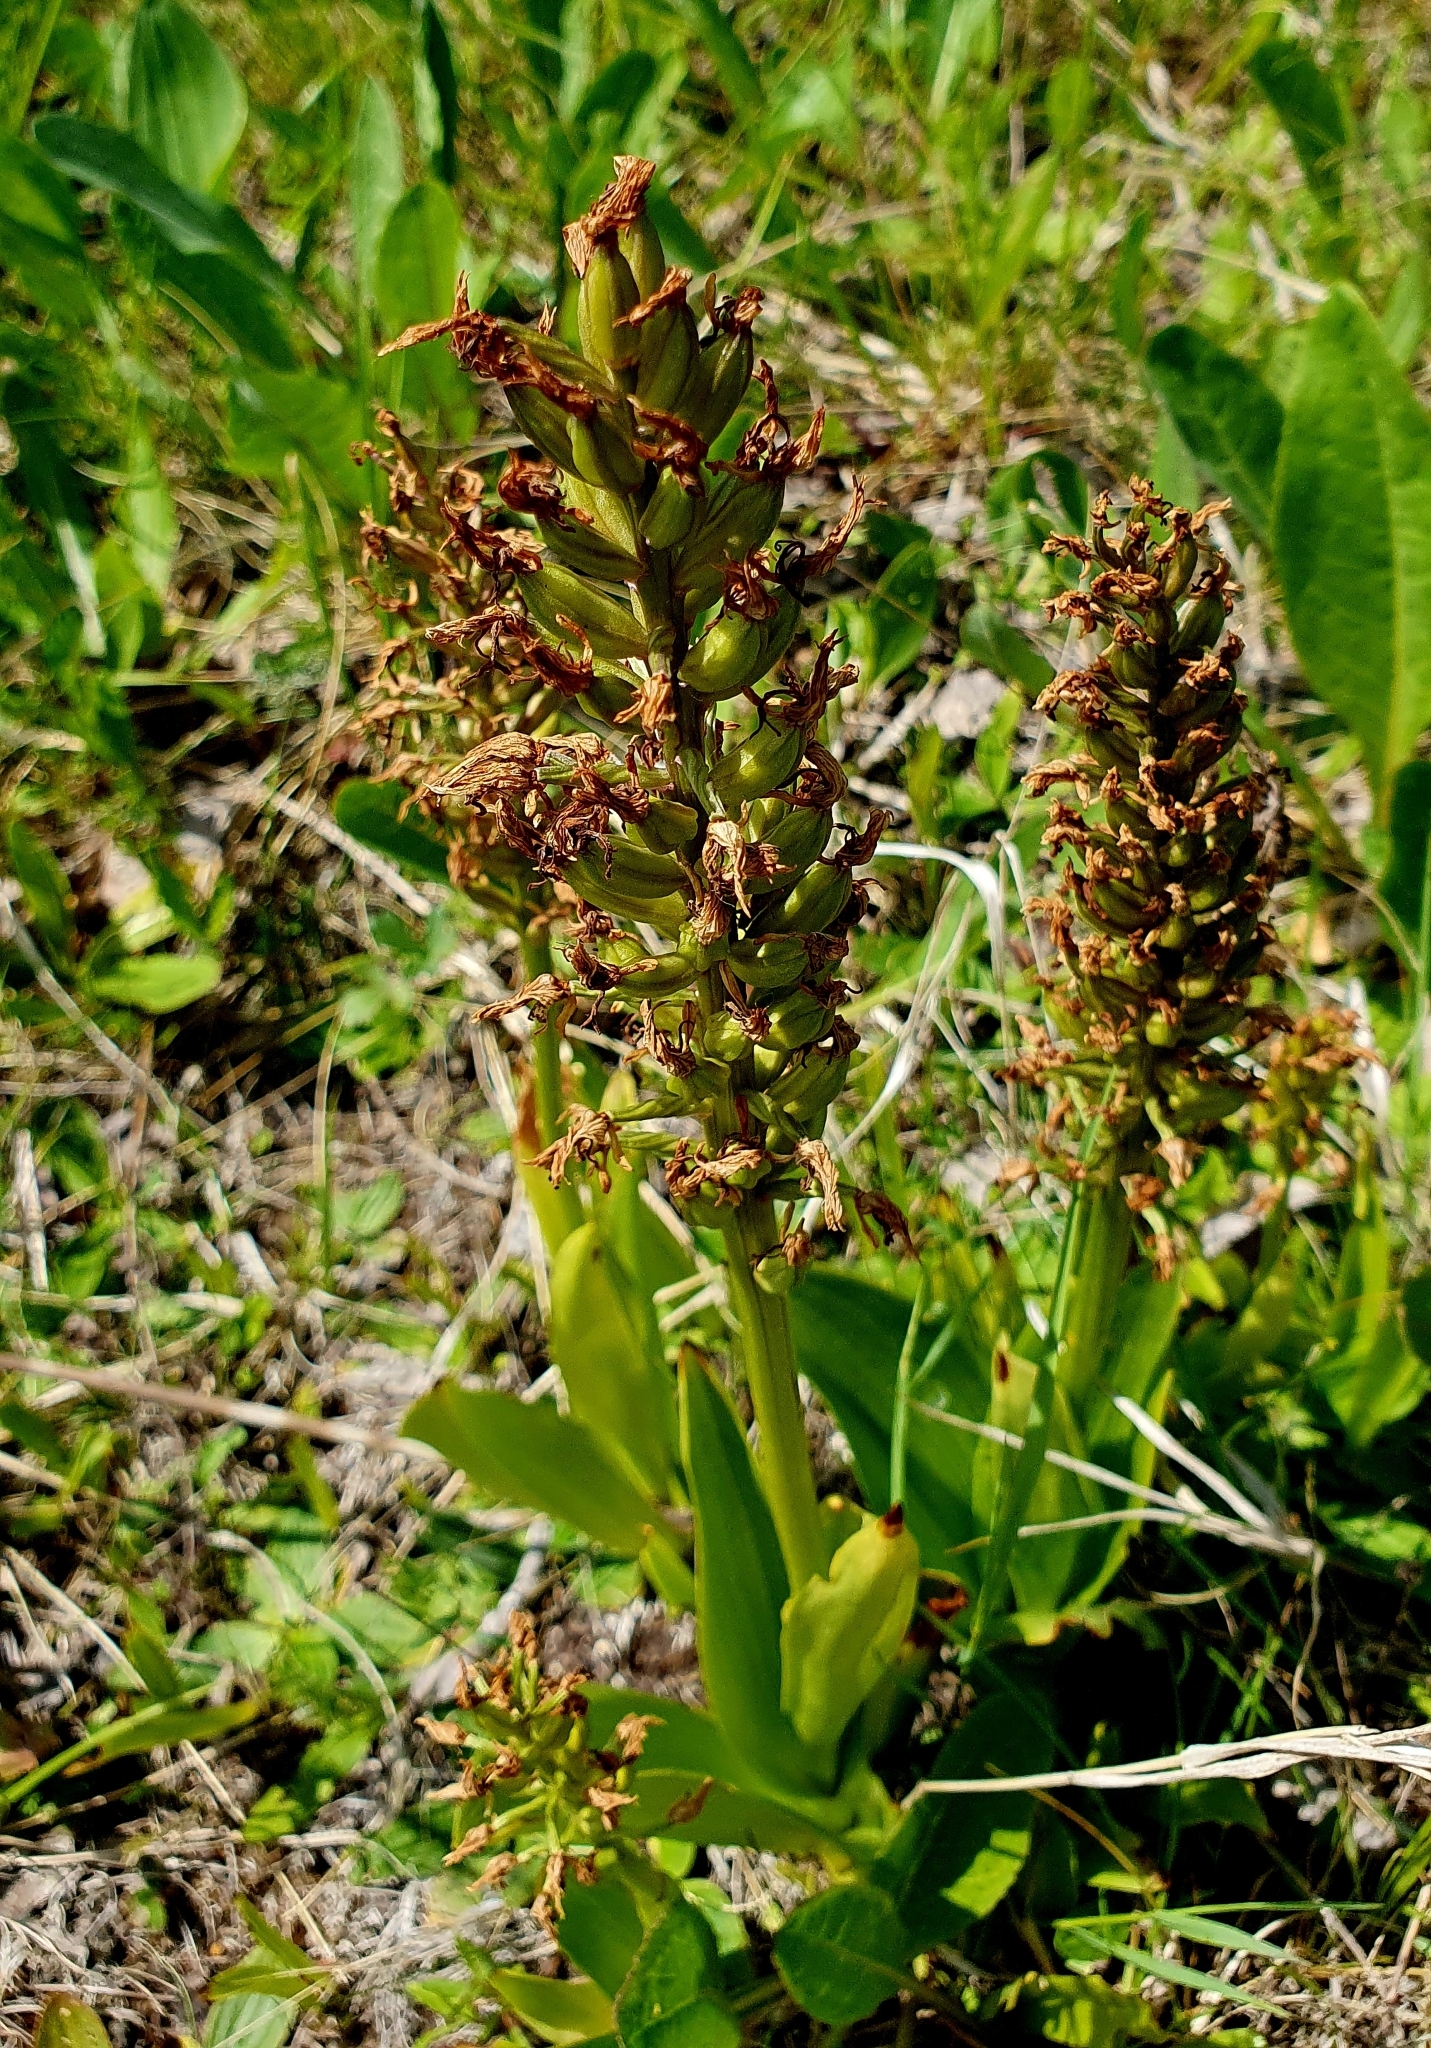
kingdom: Plantae
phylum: Tracheophyta
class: Liliopsida
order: Asparagales
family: Orchidaceae
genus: Orchis
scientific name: Orchis militaris
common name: Military orchid
